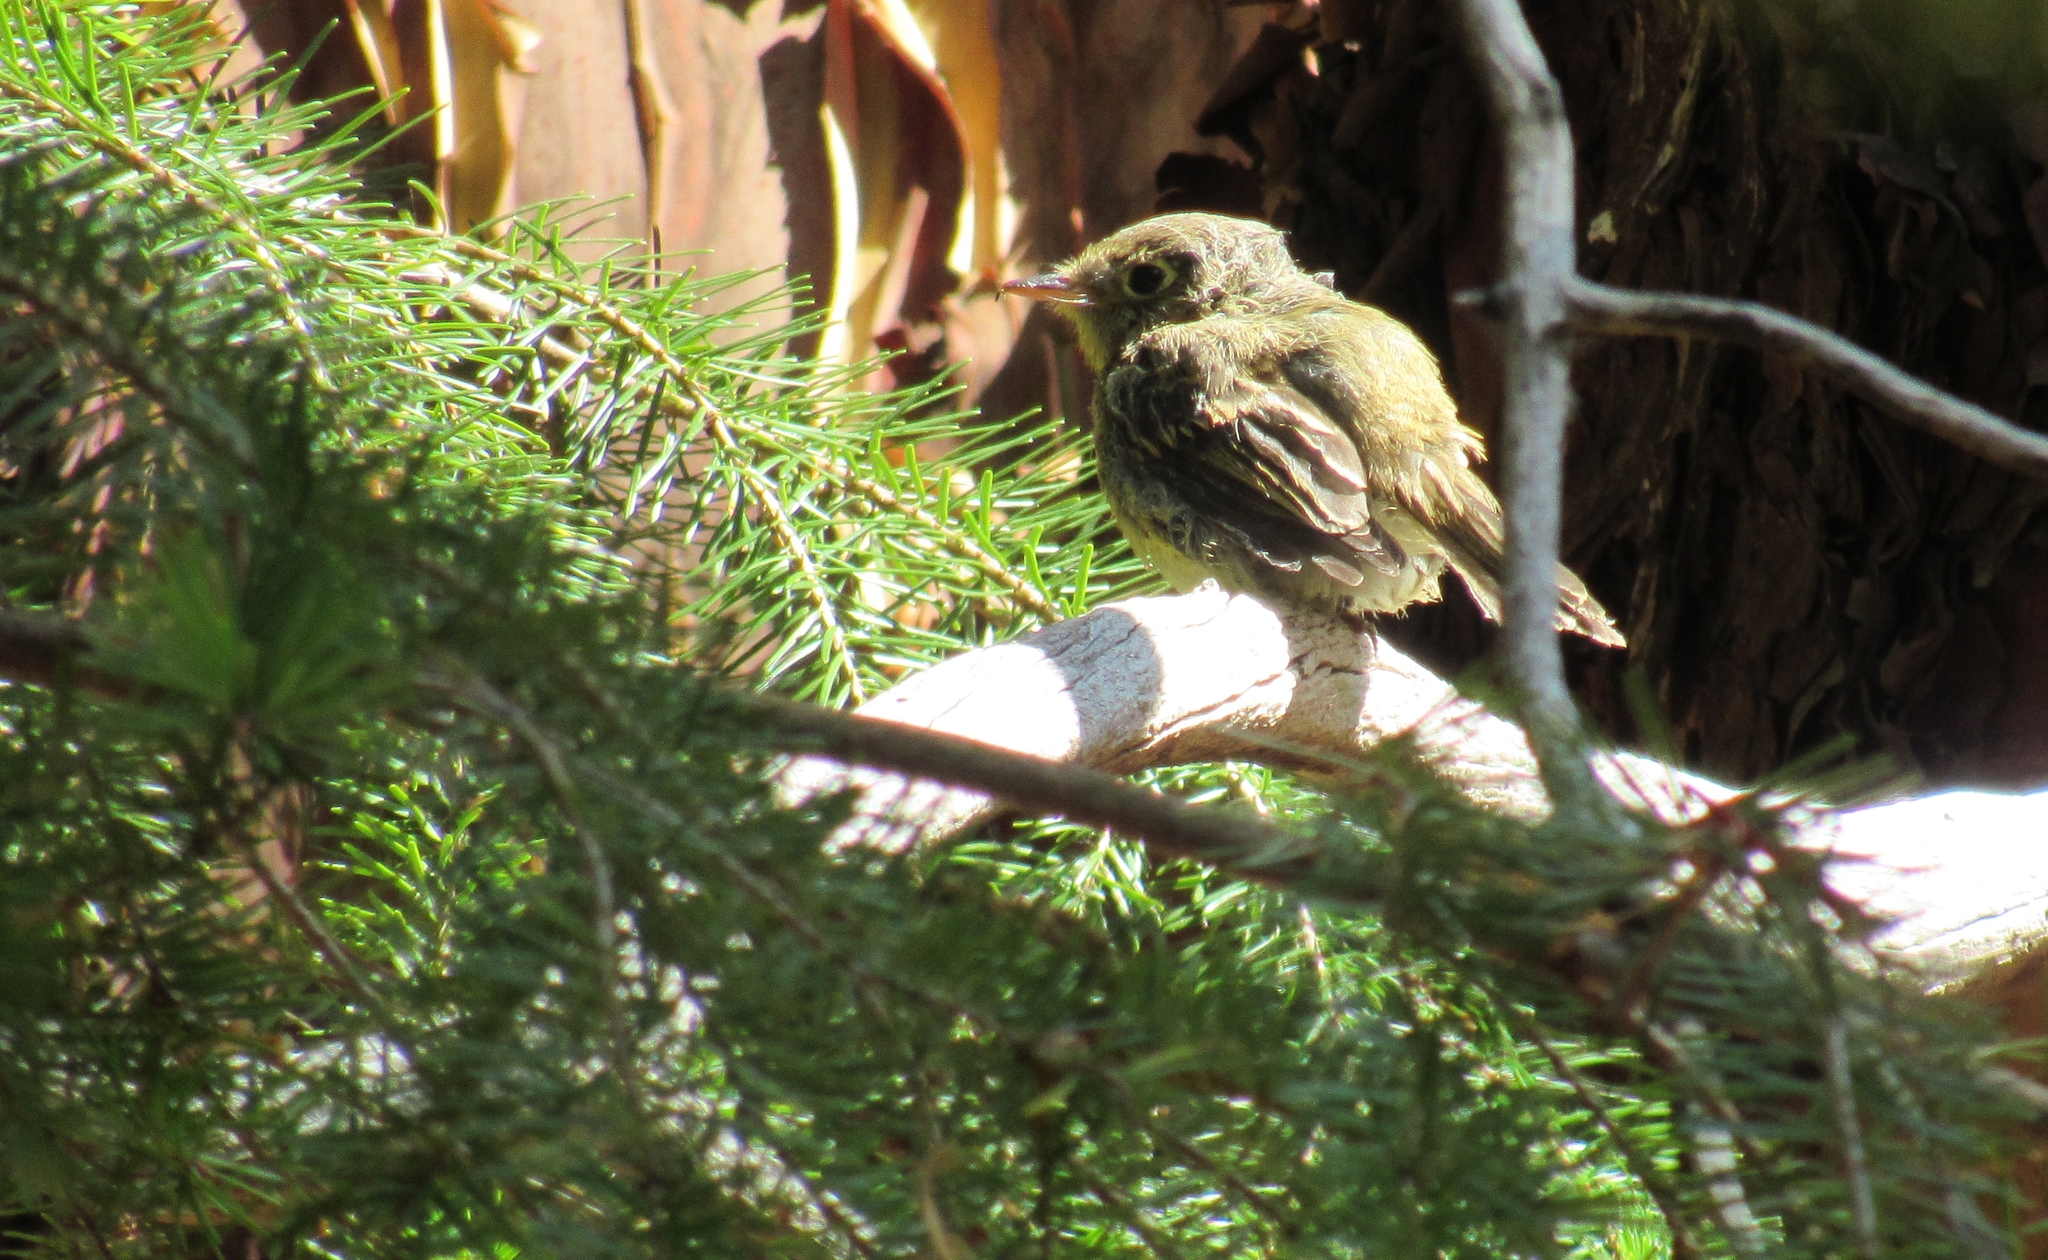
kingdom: Animalia
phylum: Chordata
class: Aves
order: Passeriformes
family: Tyrannidae
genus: Empidonax
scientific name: Empidonax difficilis
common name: Pacific-slope flycatcher
